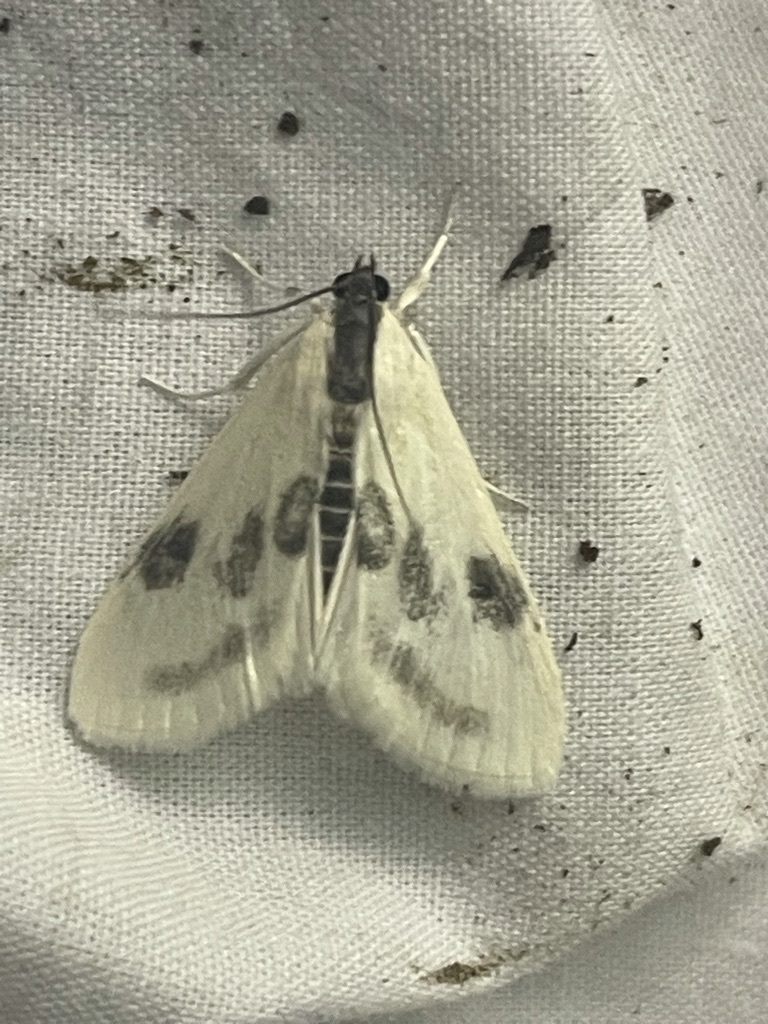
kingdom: Animalia
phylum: Arthropoda
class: Insecta
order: Lepidoptera
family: Crambidae
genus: Cliniodes
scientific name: Cliniodes
